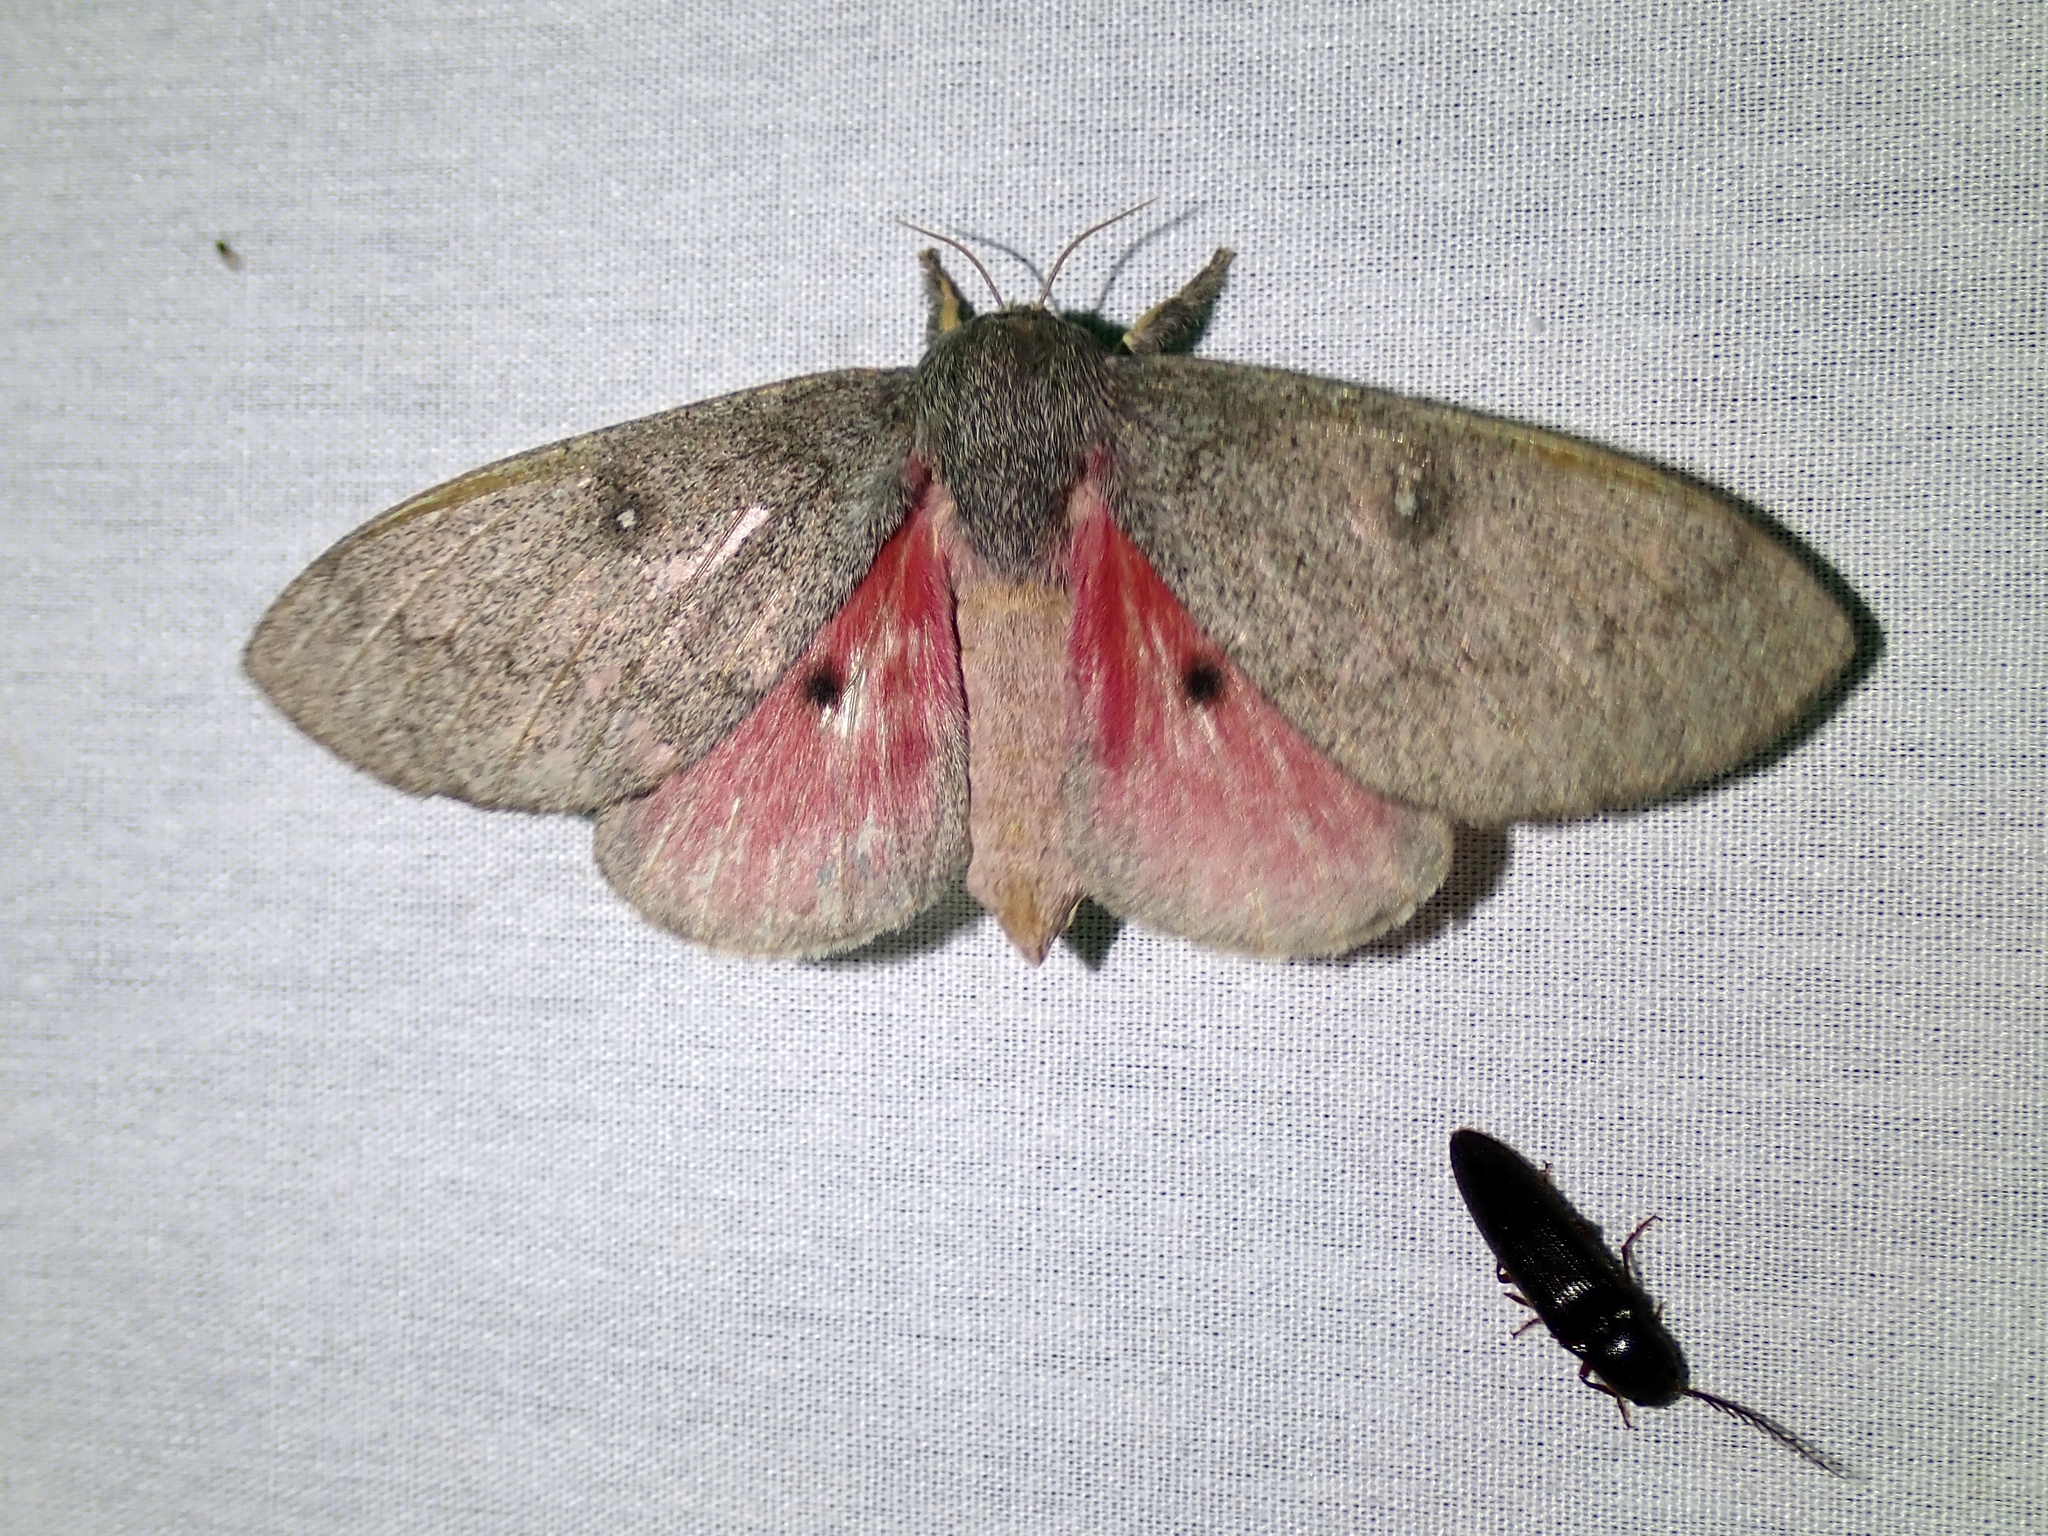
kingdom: Animalia
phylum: Arthropoda
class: Insecta
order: Lepidoptera
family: Saturniidae
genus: Syssphinx
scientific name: Syssphinx hubbardi
